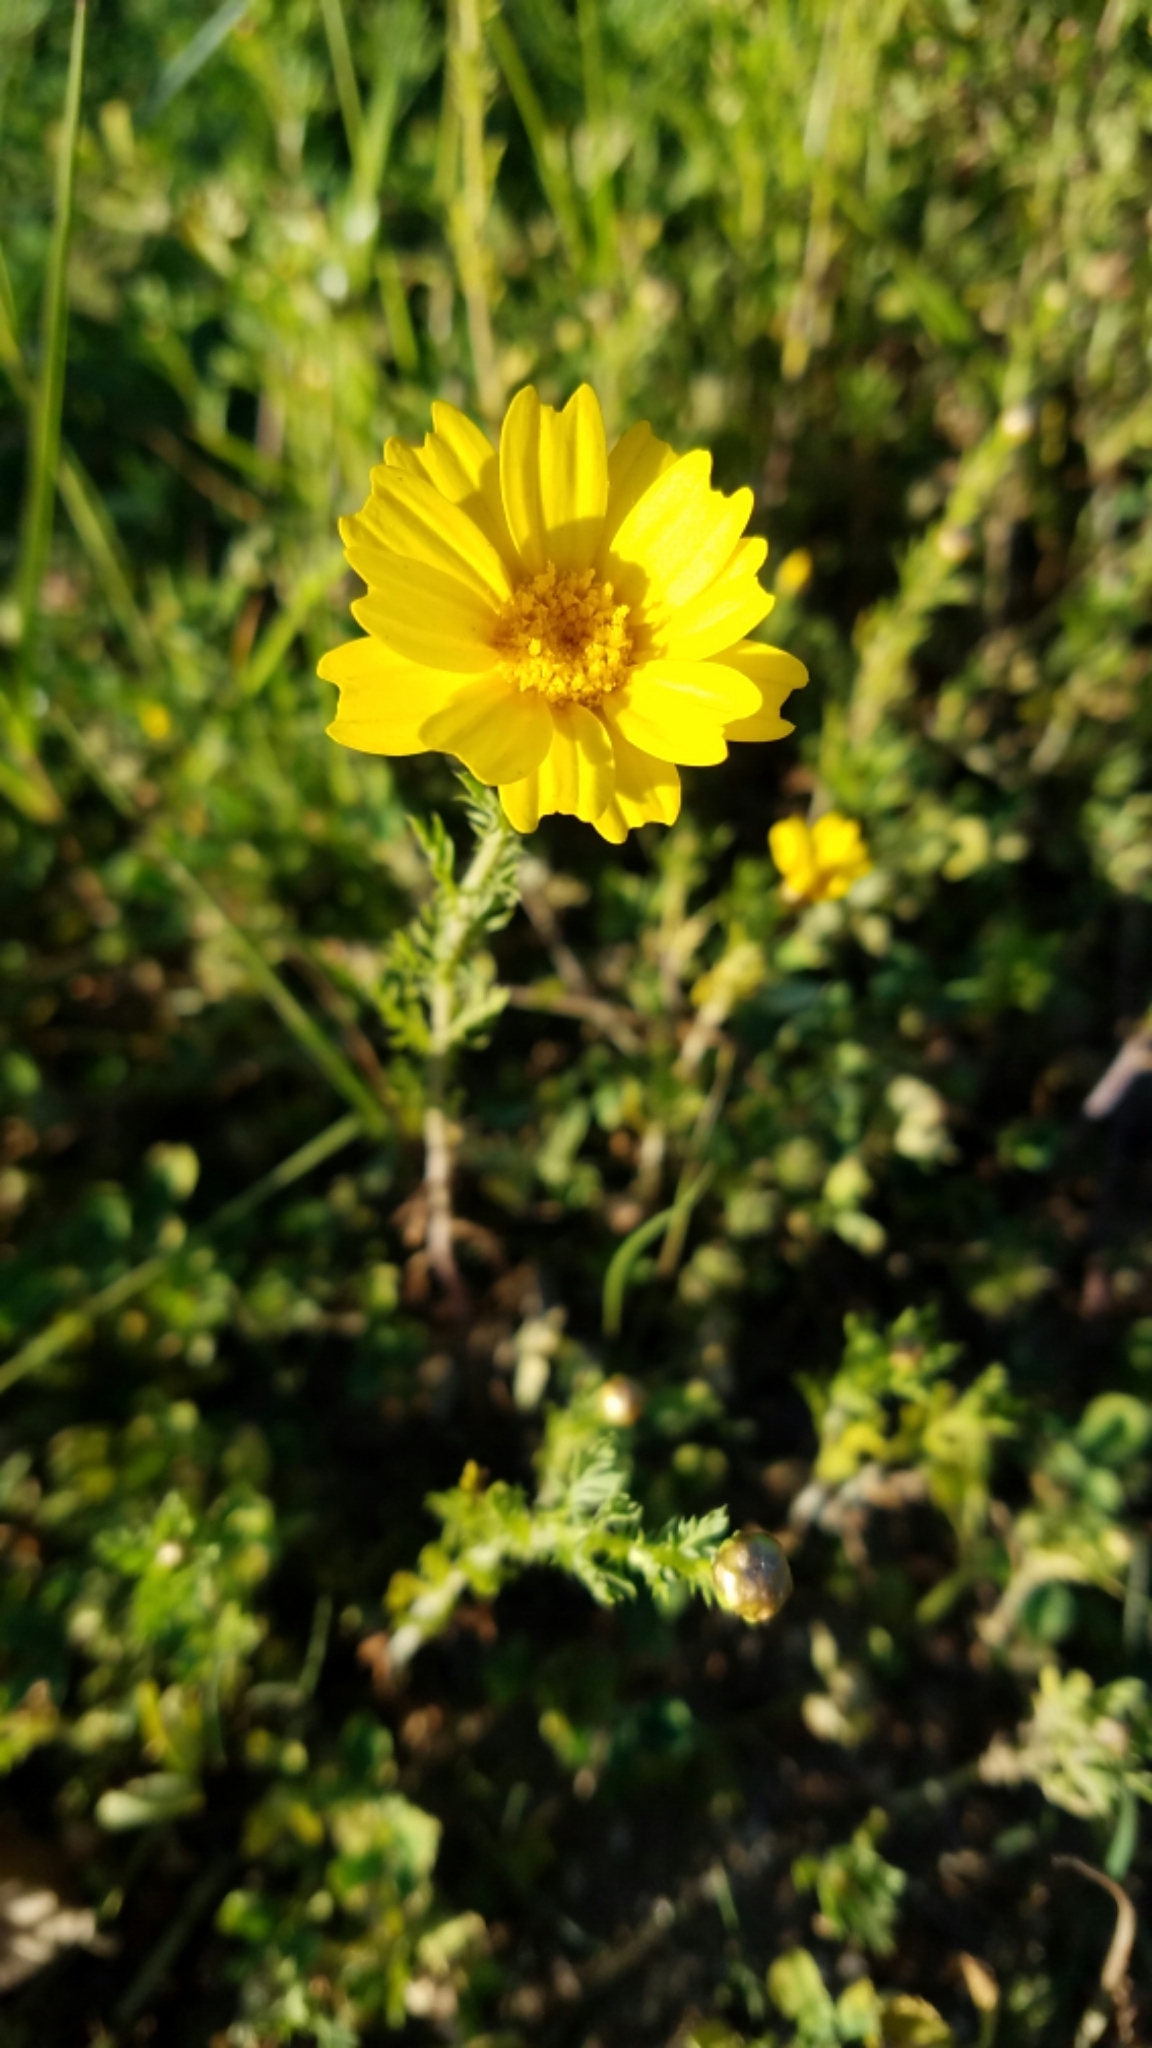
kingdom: Plantae
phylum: Tracheophyta
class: Magnoliopsida
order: Asterales
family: Asteraceae
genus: Glebionis
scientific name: Glebionis coronaria
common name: Crowndaisy
